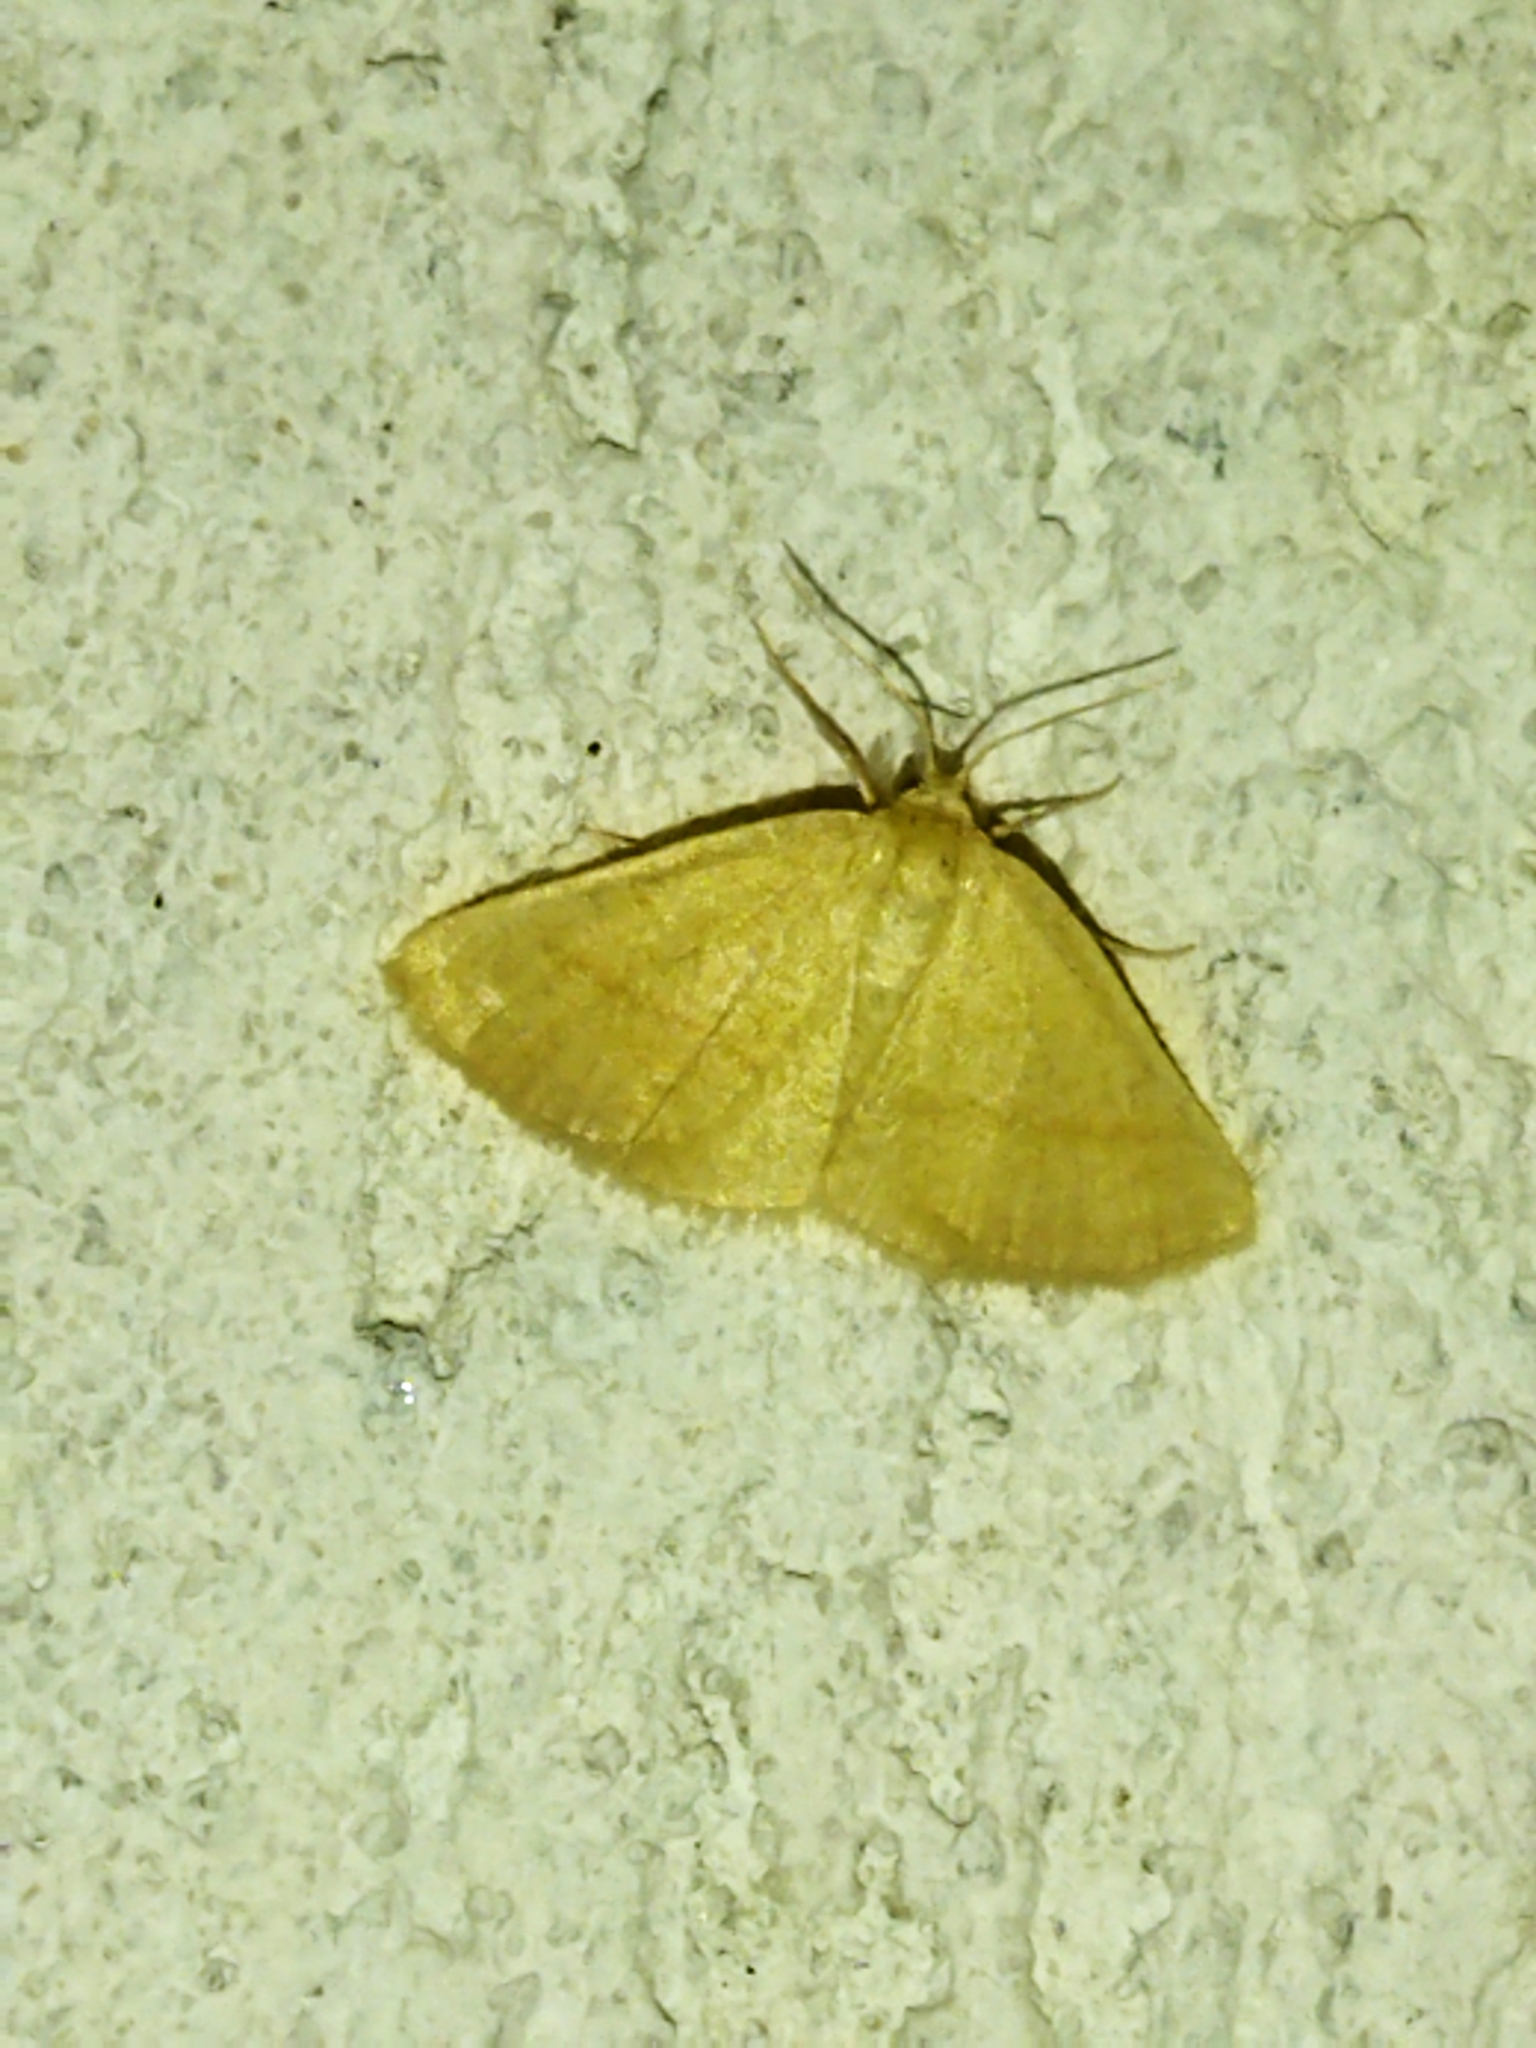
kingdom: Animalia
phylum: Arthropoda
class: Insecta
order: Lepidoptera
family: Geometridae
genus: Aplasta
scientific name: Aplasta ononaria
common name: Rest harrow
